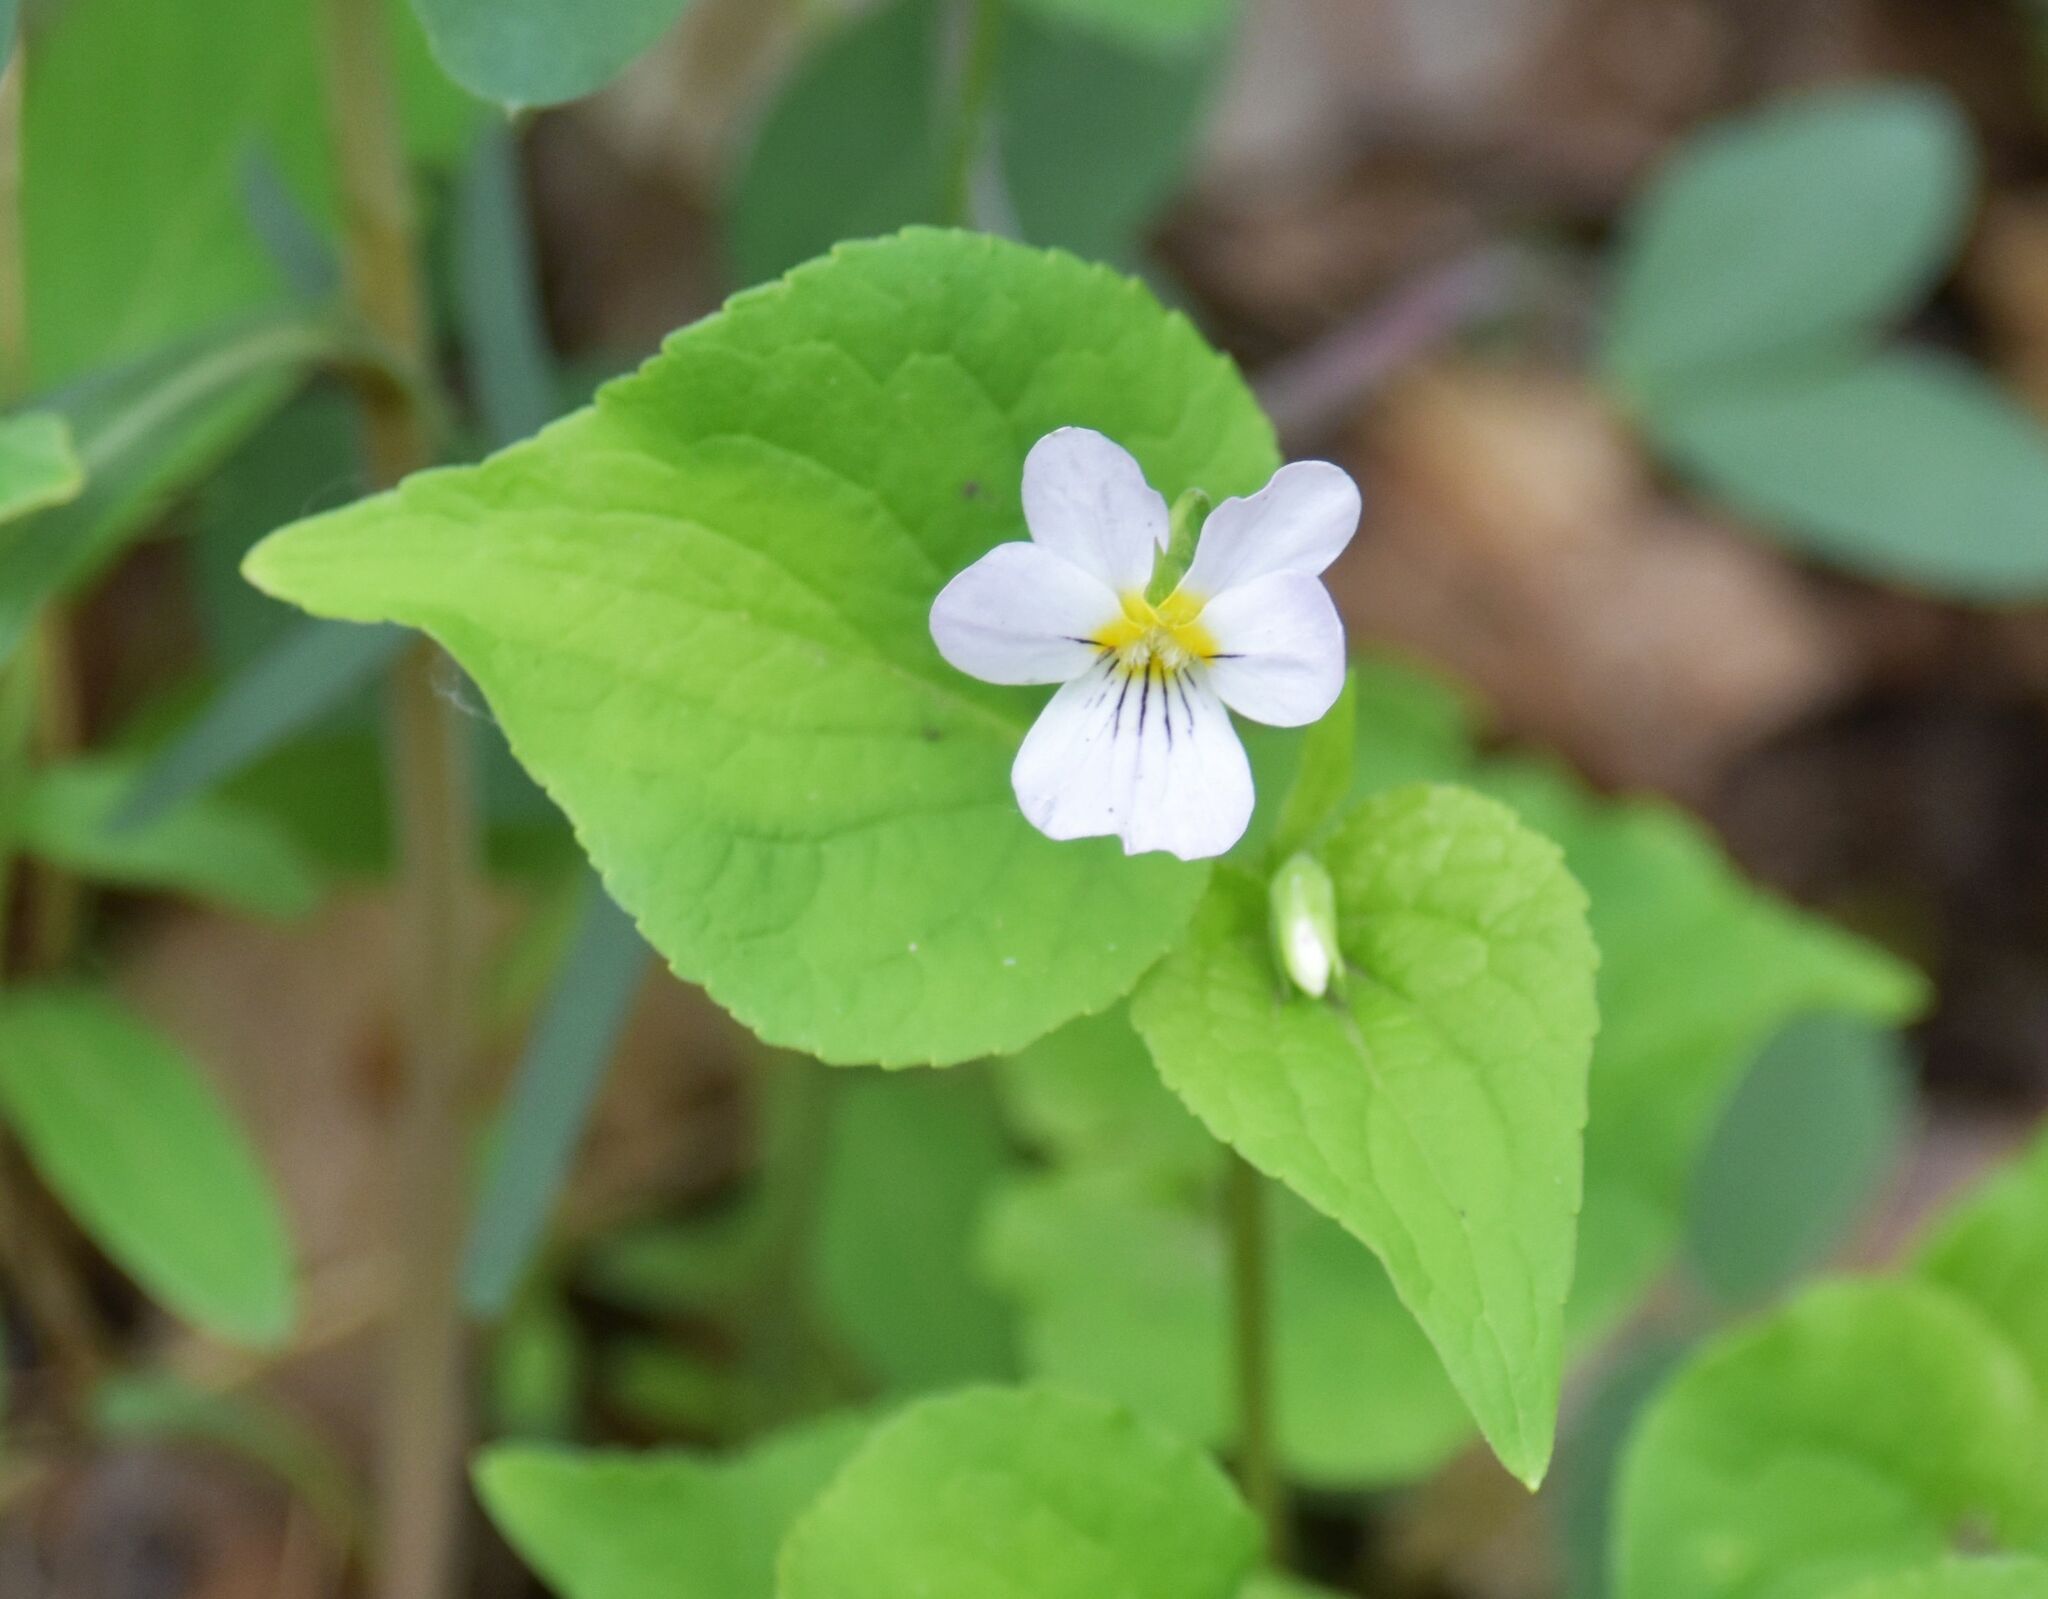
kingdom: Plantae
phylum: Tracheophyta
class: Magnoliopsida
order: Malpighiales
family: Violaceae
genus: Viola
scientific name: Viola canadensis
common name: Canada violet
